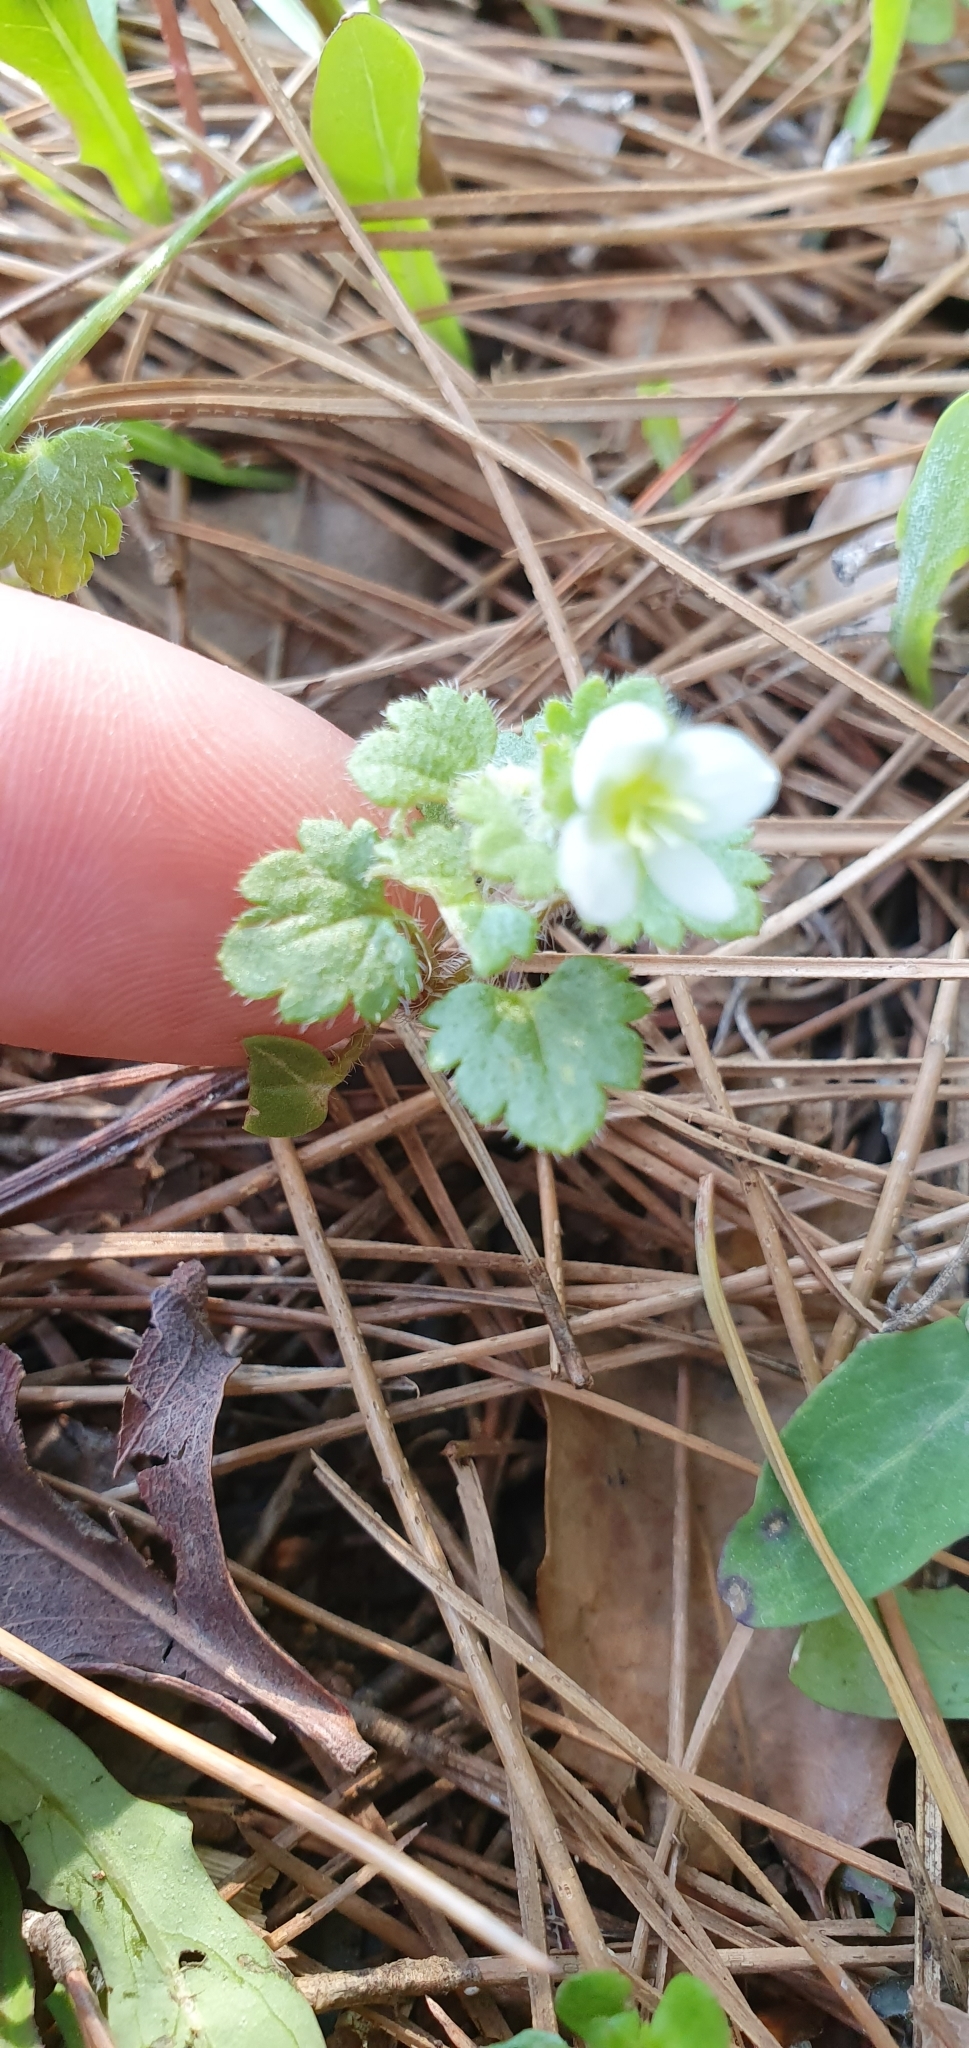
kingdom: Plantae
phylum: Tracheophyta
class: Magnoliopsida
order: Lamiales
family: Plantaginaceae
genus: Veronica
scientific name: Veronica cymbalaria
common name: Pale speedwell
